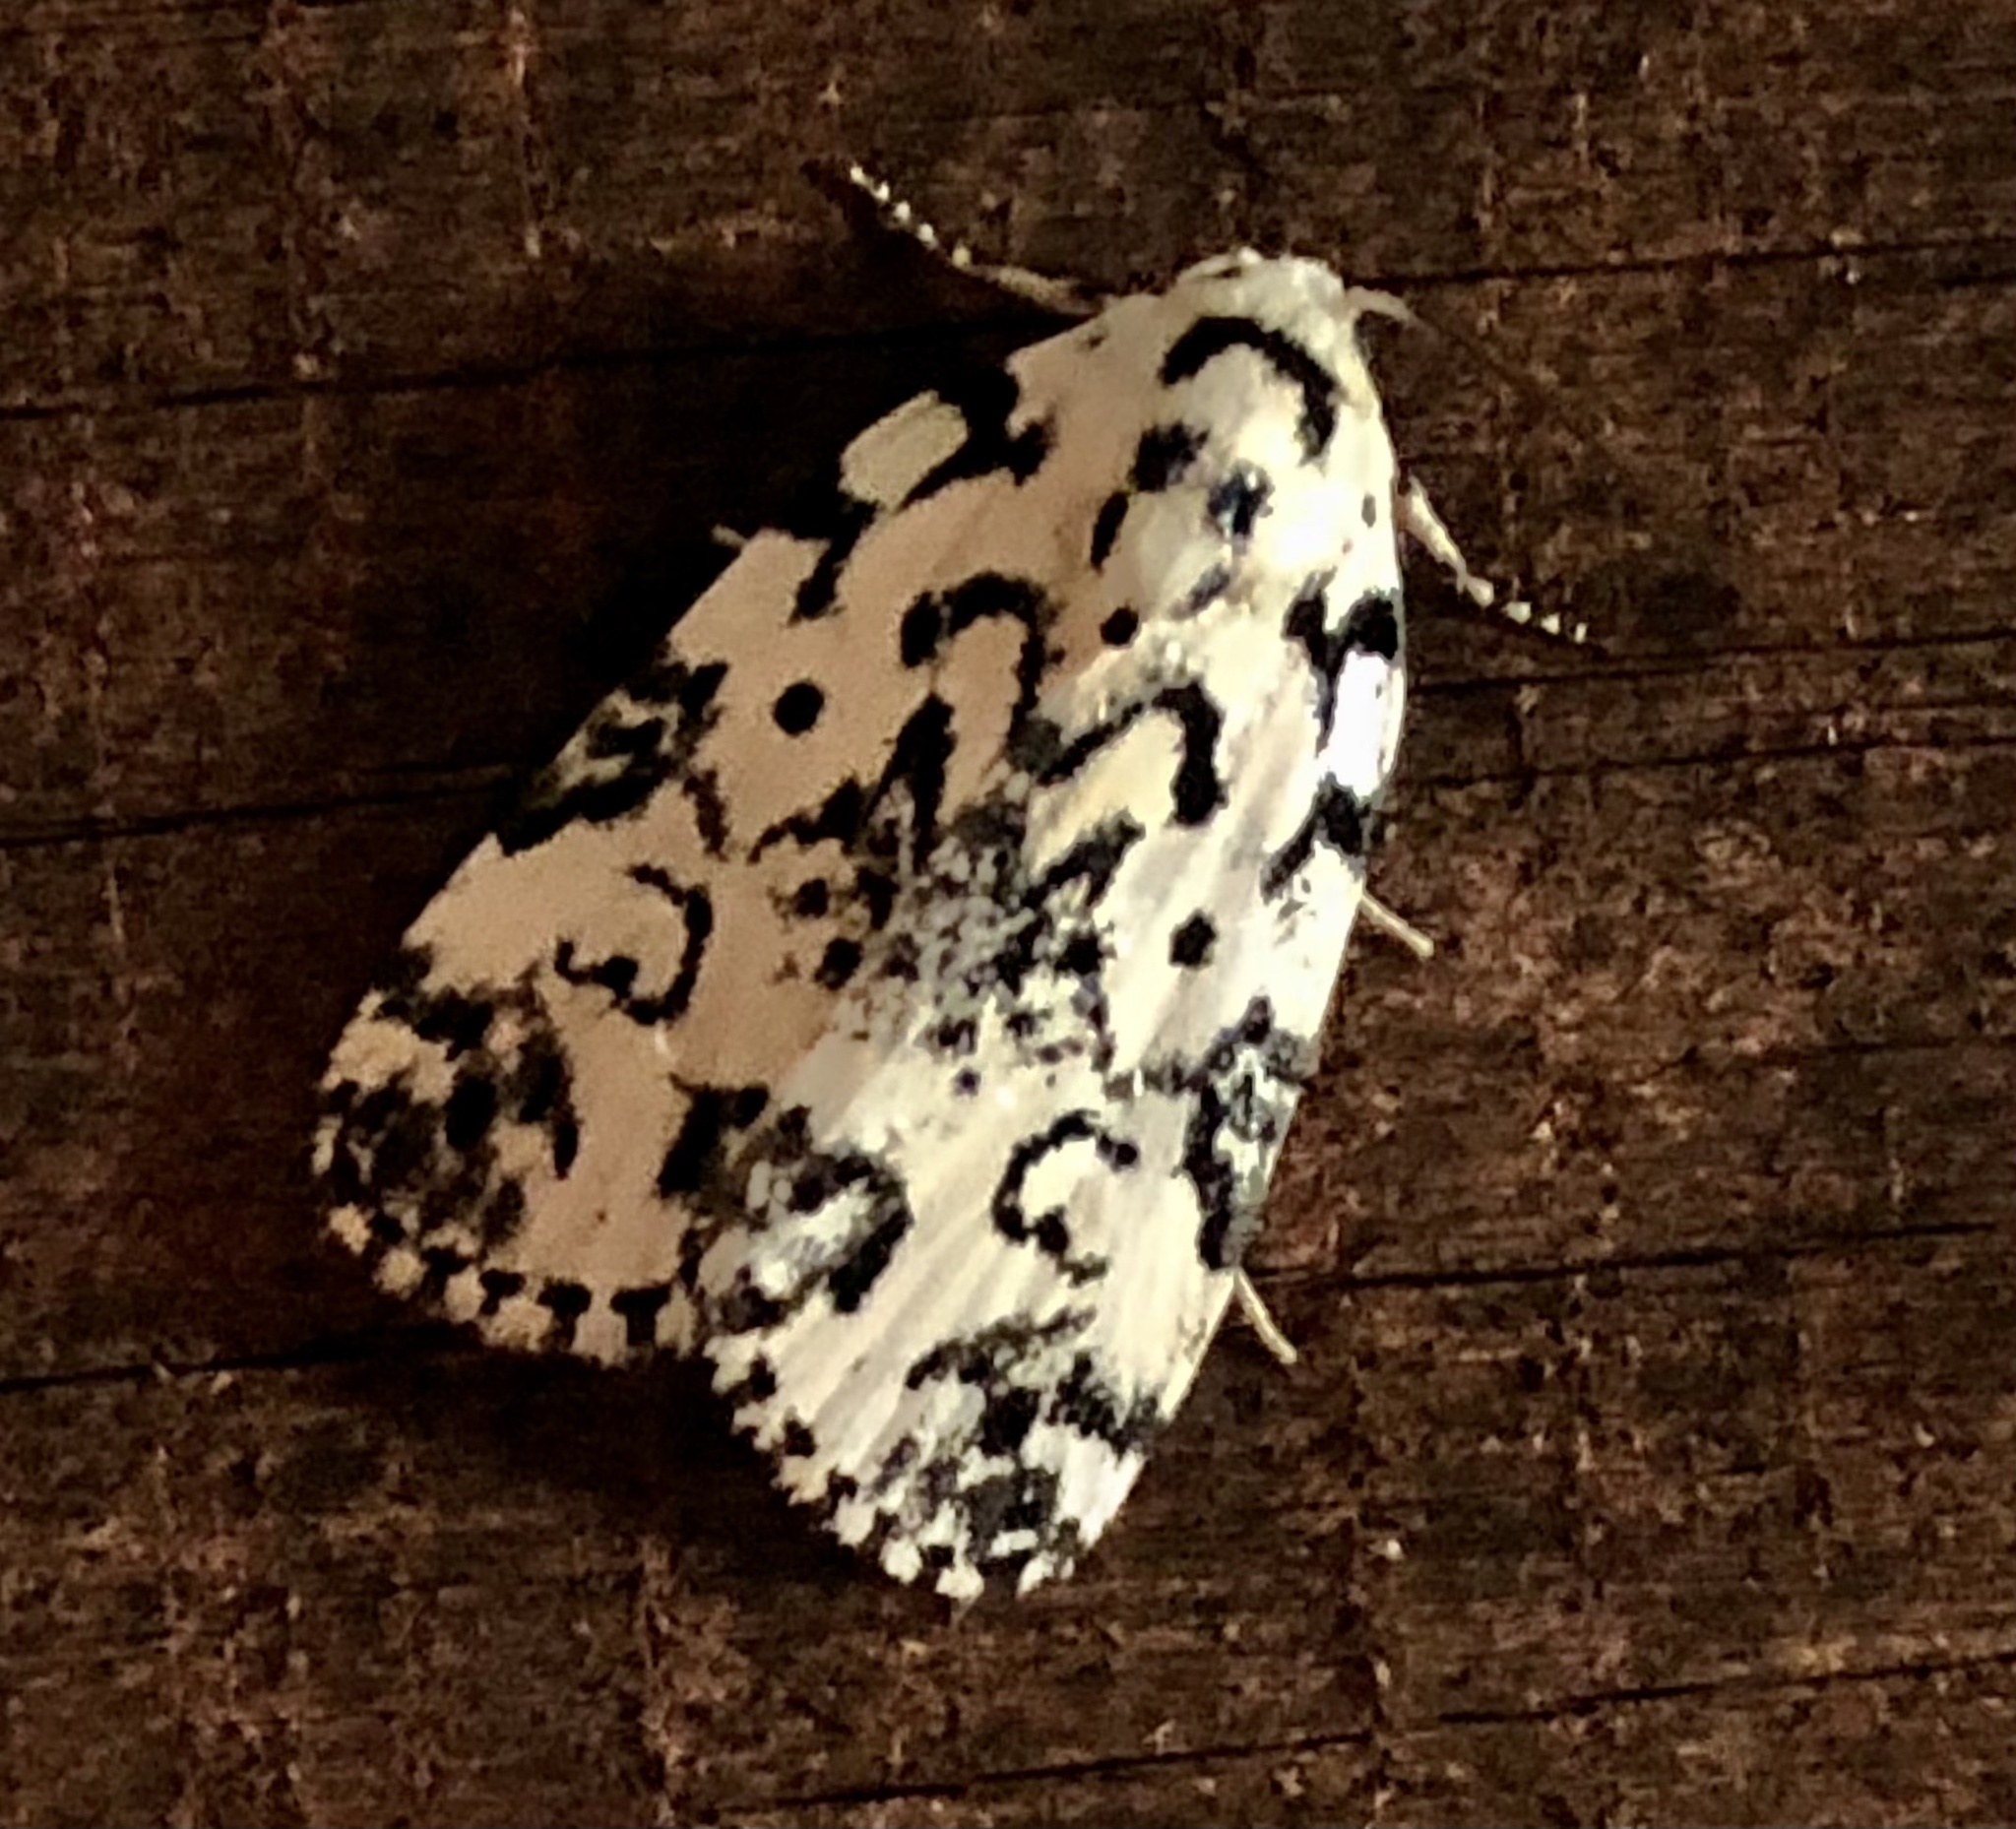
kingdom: Animalia
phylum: Arthropoda
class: Insecta
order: Lepidoptera
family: Noctuidae
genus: Polygrammate
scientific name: Polygrammate hebraeicum
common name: Hebrew moth
